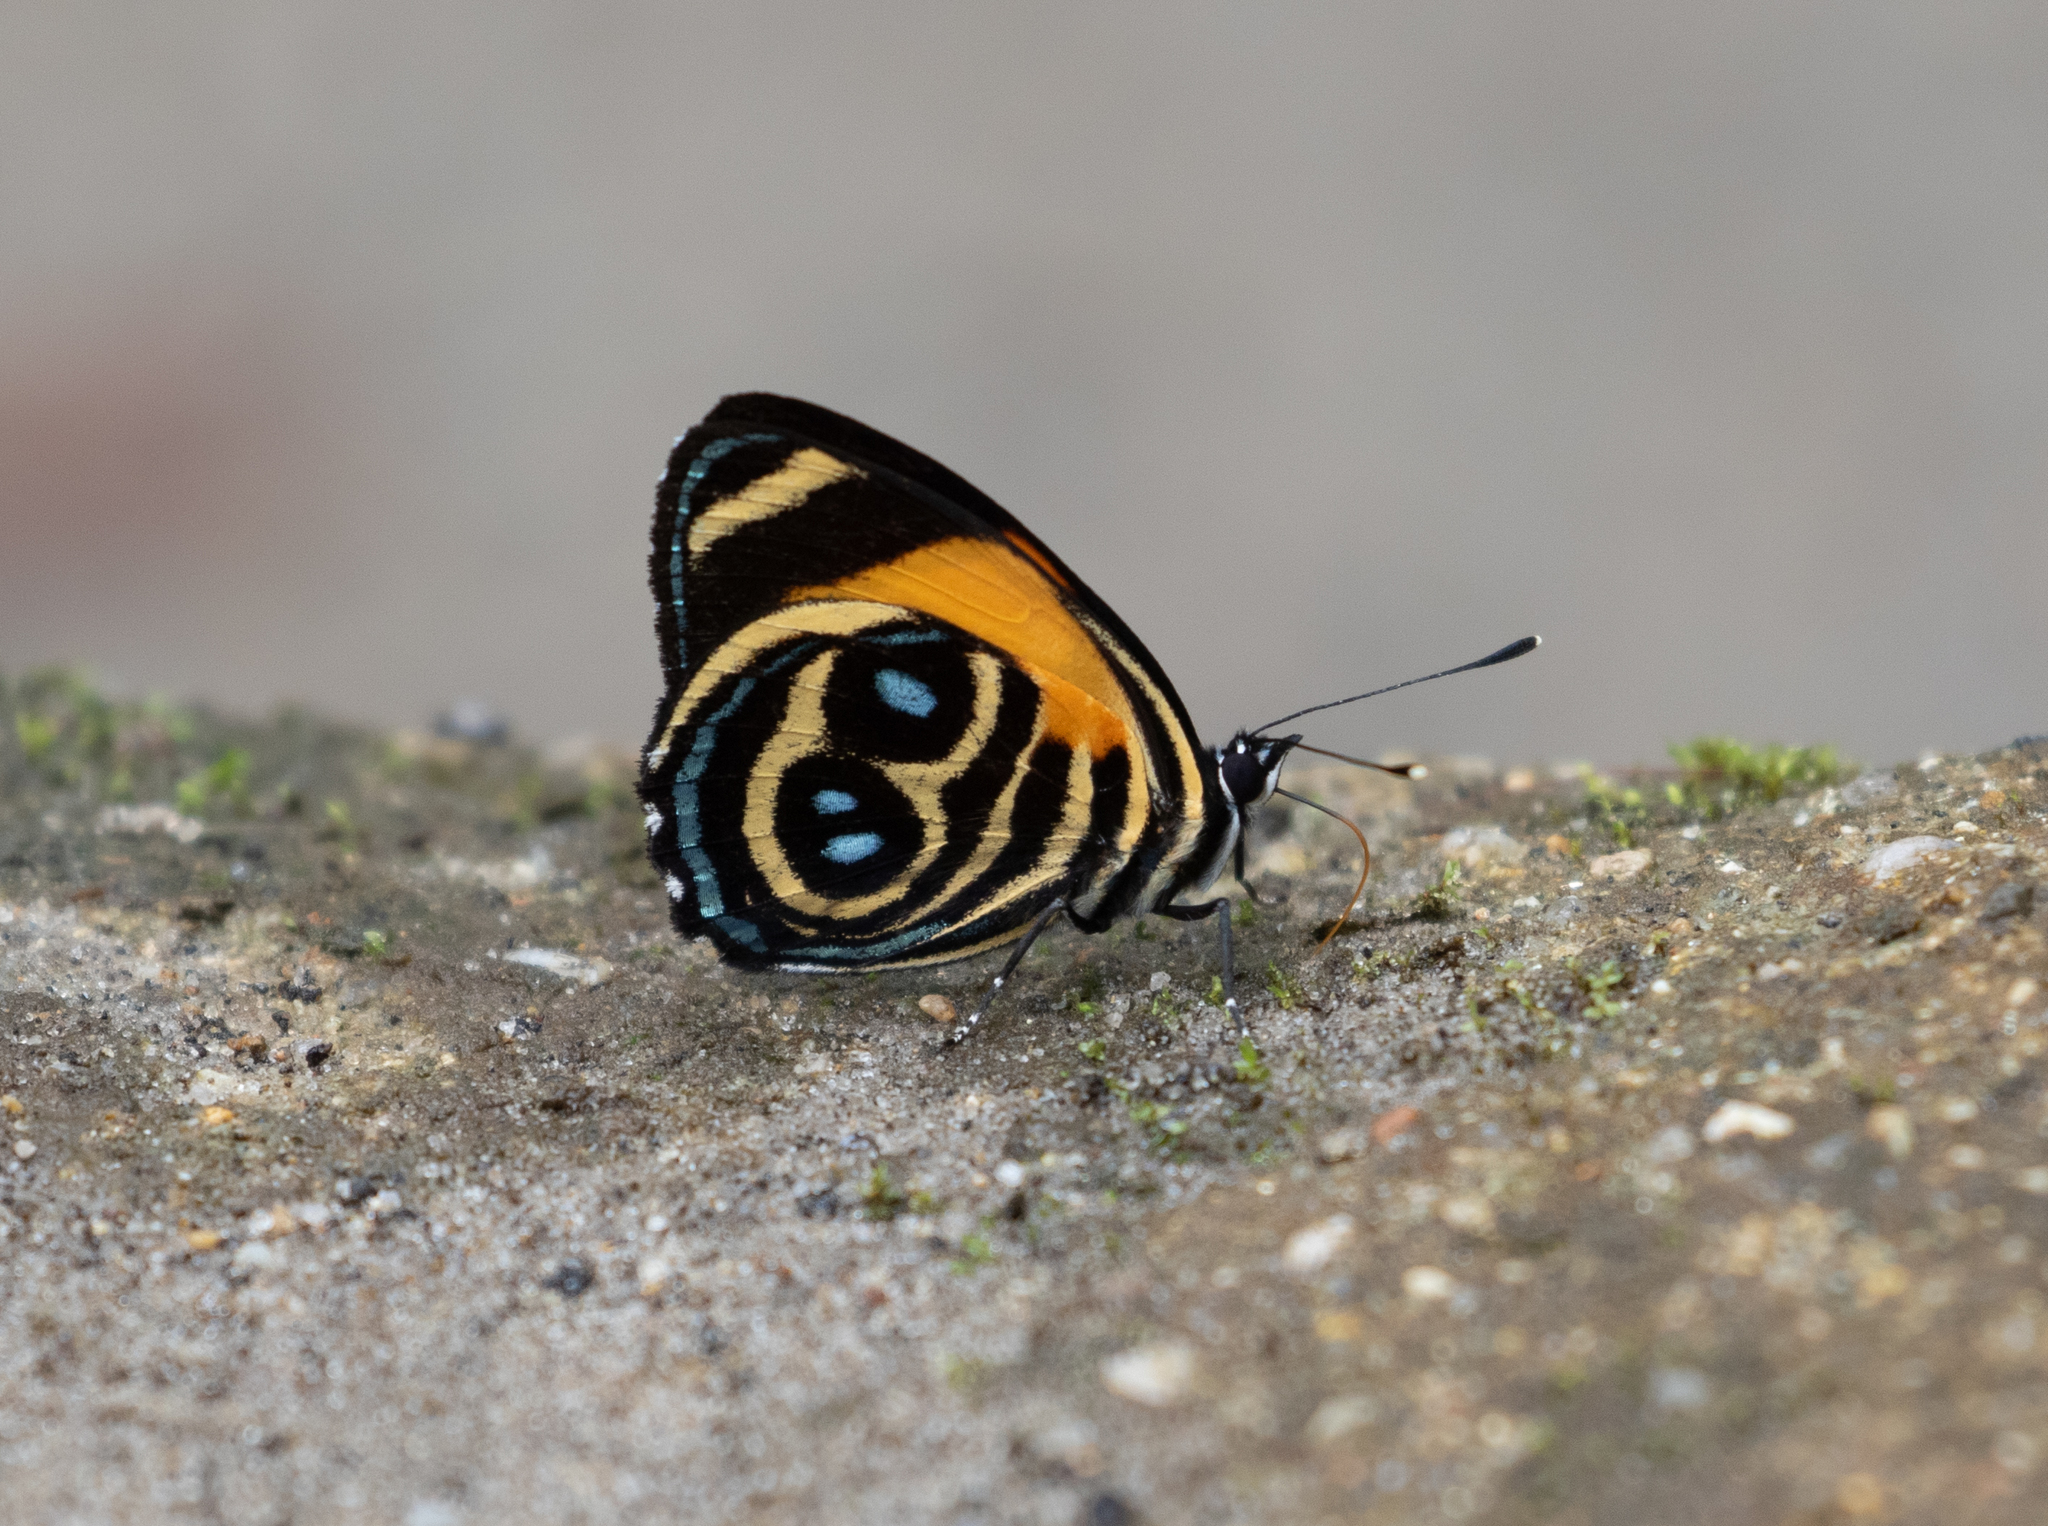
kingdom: Animalia
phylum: Arthropoda
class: Insecta
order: Lepidoptera
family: Nymphalidae
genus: Catagramma
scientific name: Catagramma tolima
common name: Blue-and-orange eighty-eight
